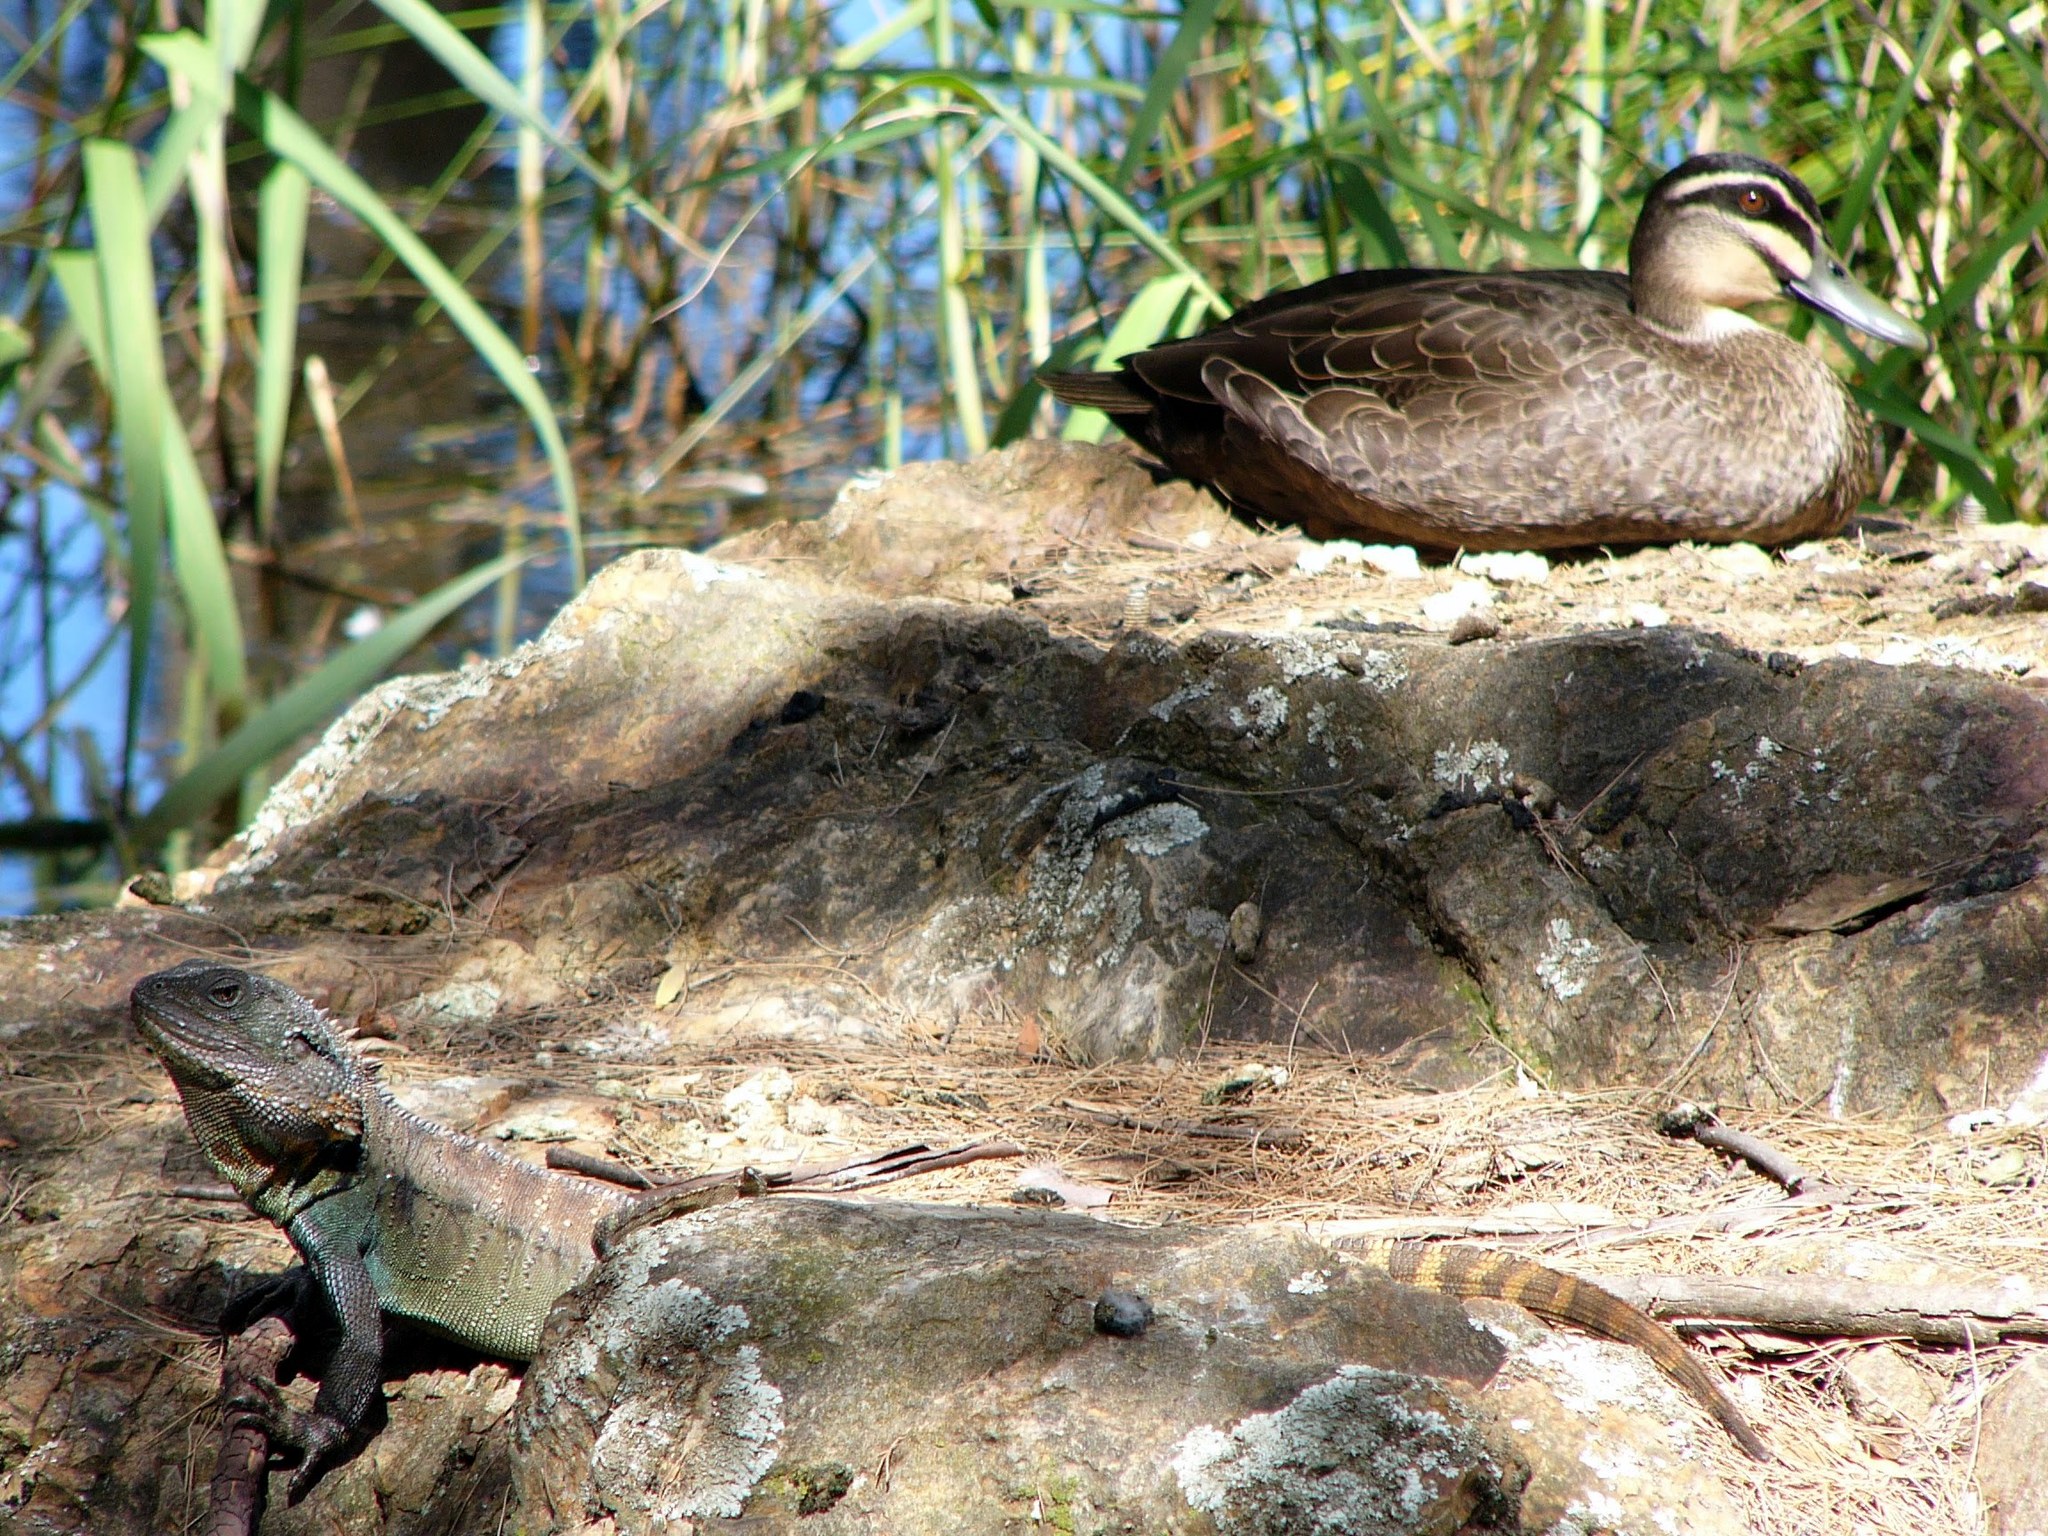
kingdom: Animalia
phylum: Chordata
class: Aves
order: Anseriformes
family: Anatidae
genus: Anas
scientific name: Anas superciliosa
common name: Pacific black duck
